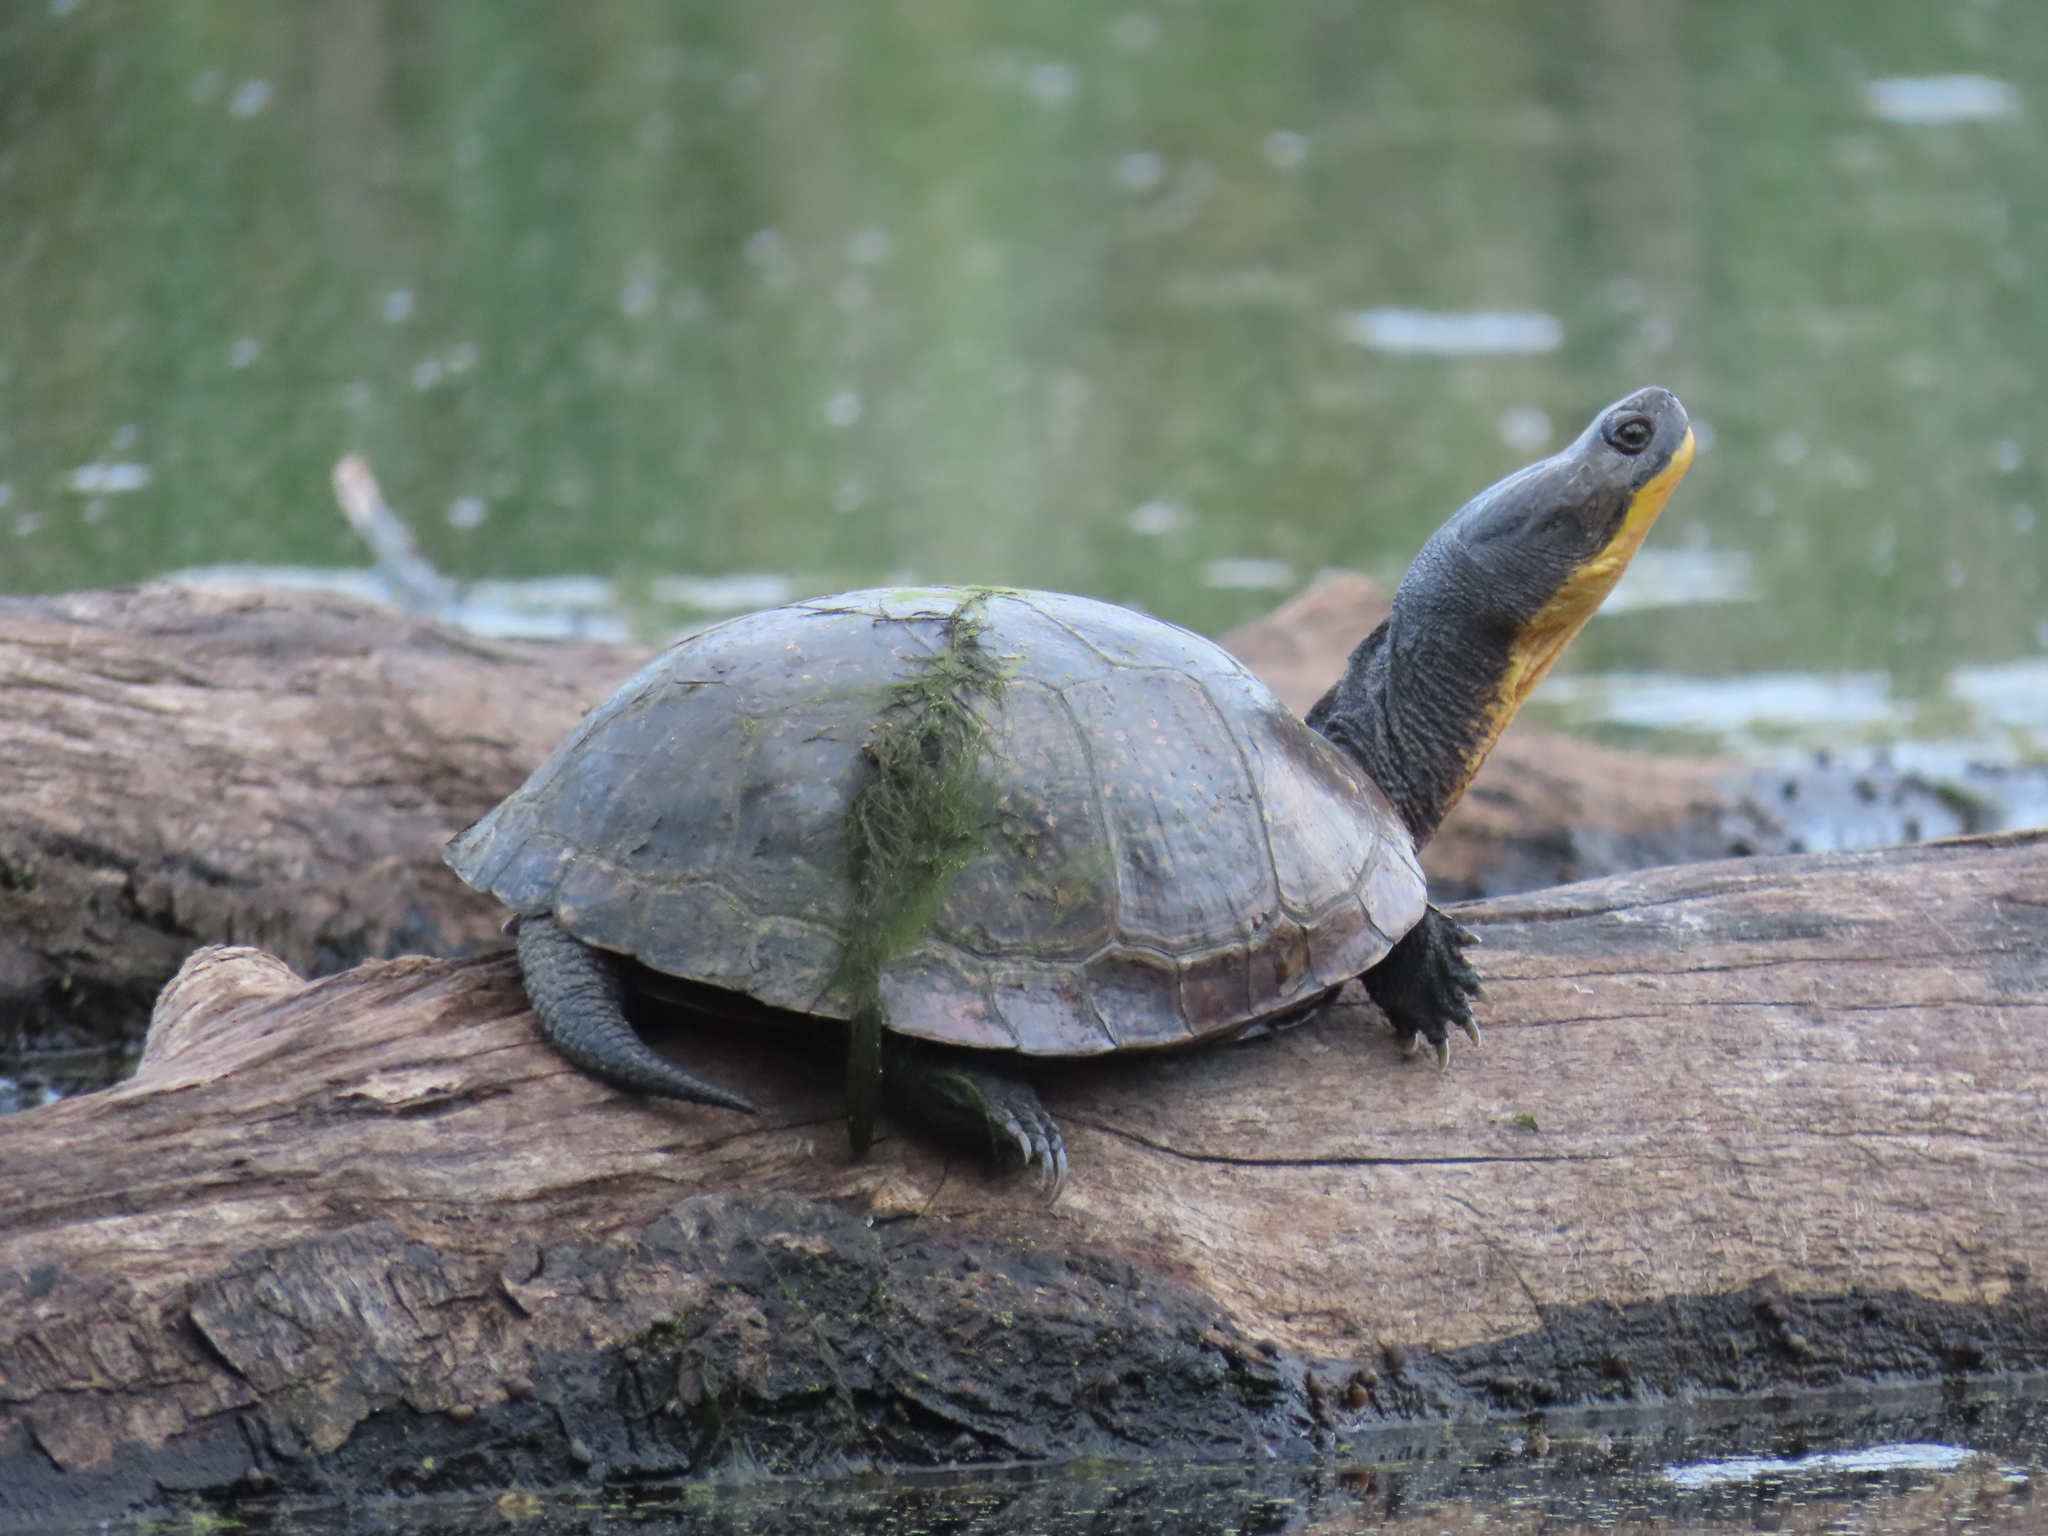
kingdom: Animalia
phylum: Chordata
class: Testudines
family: Emydidae
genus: Emys
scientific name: Emys blandingii
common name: Blanding's turtle
